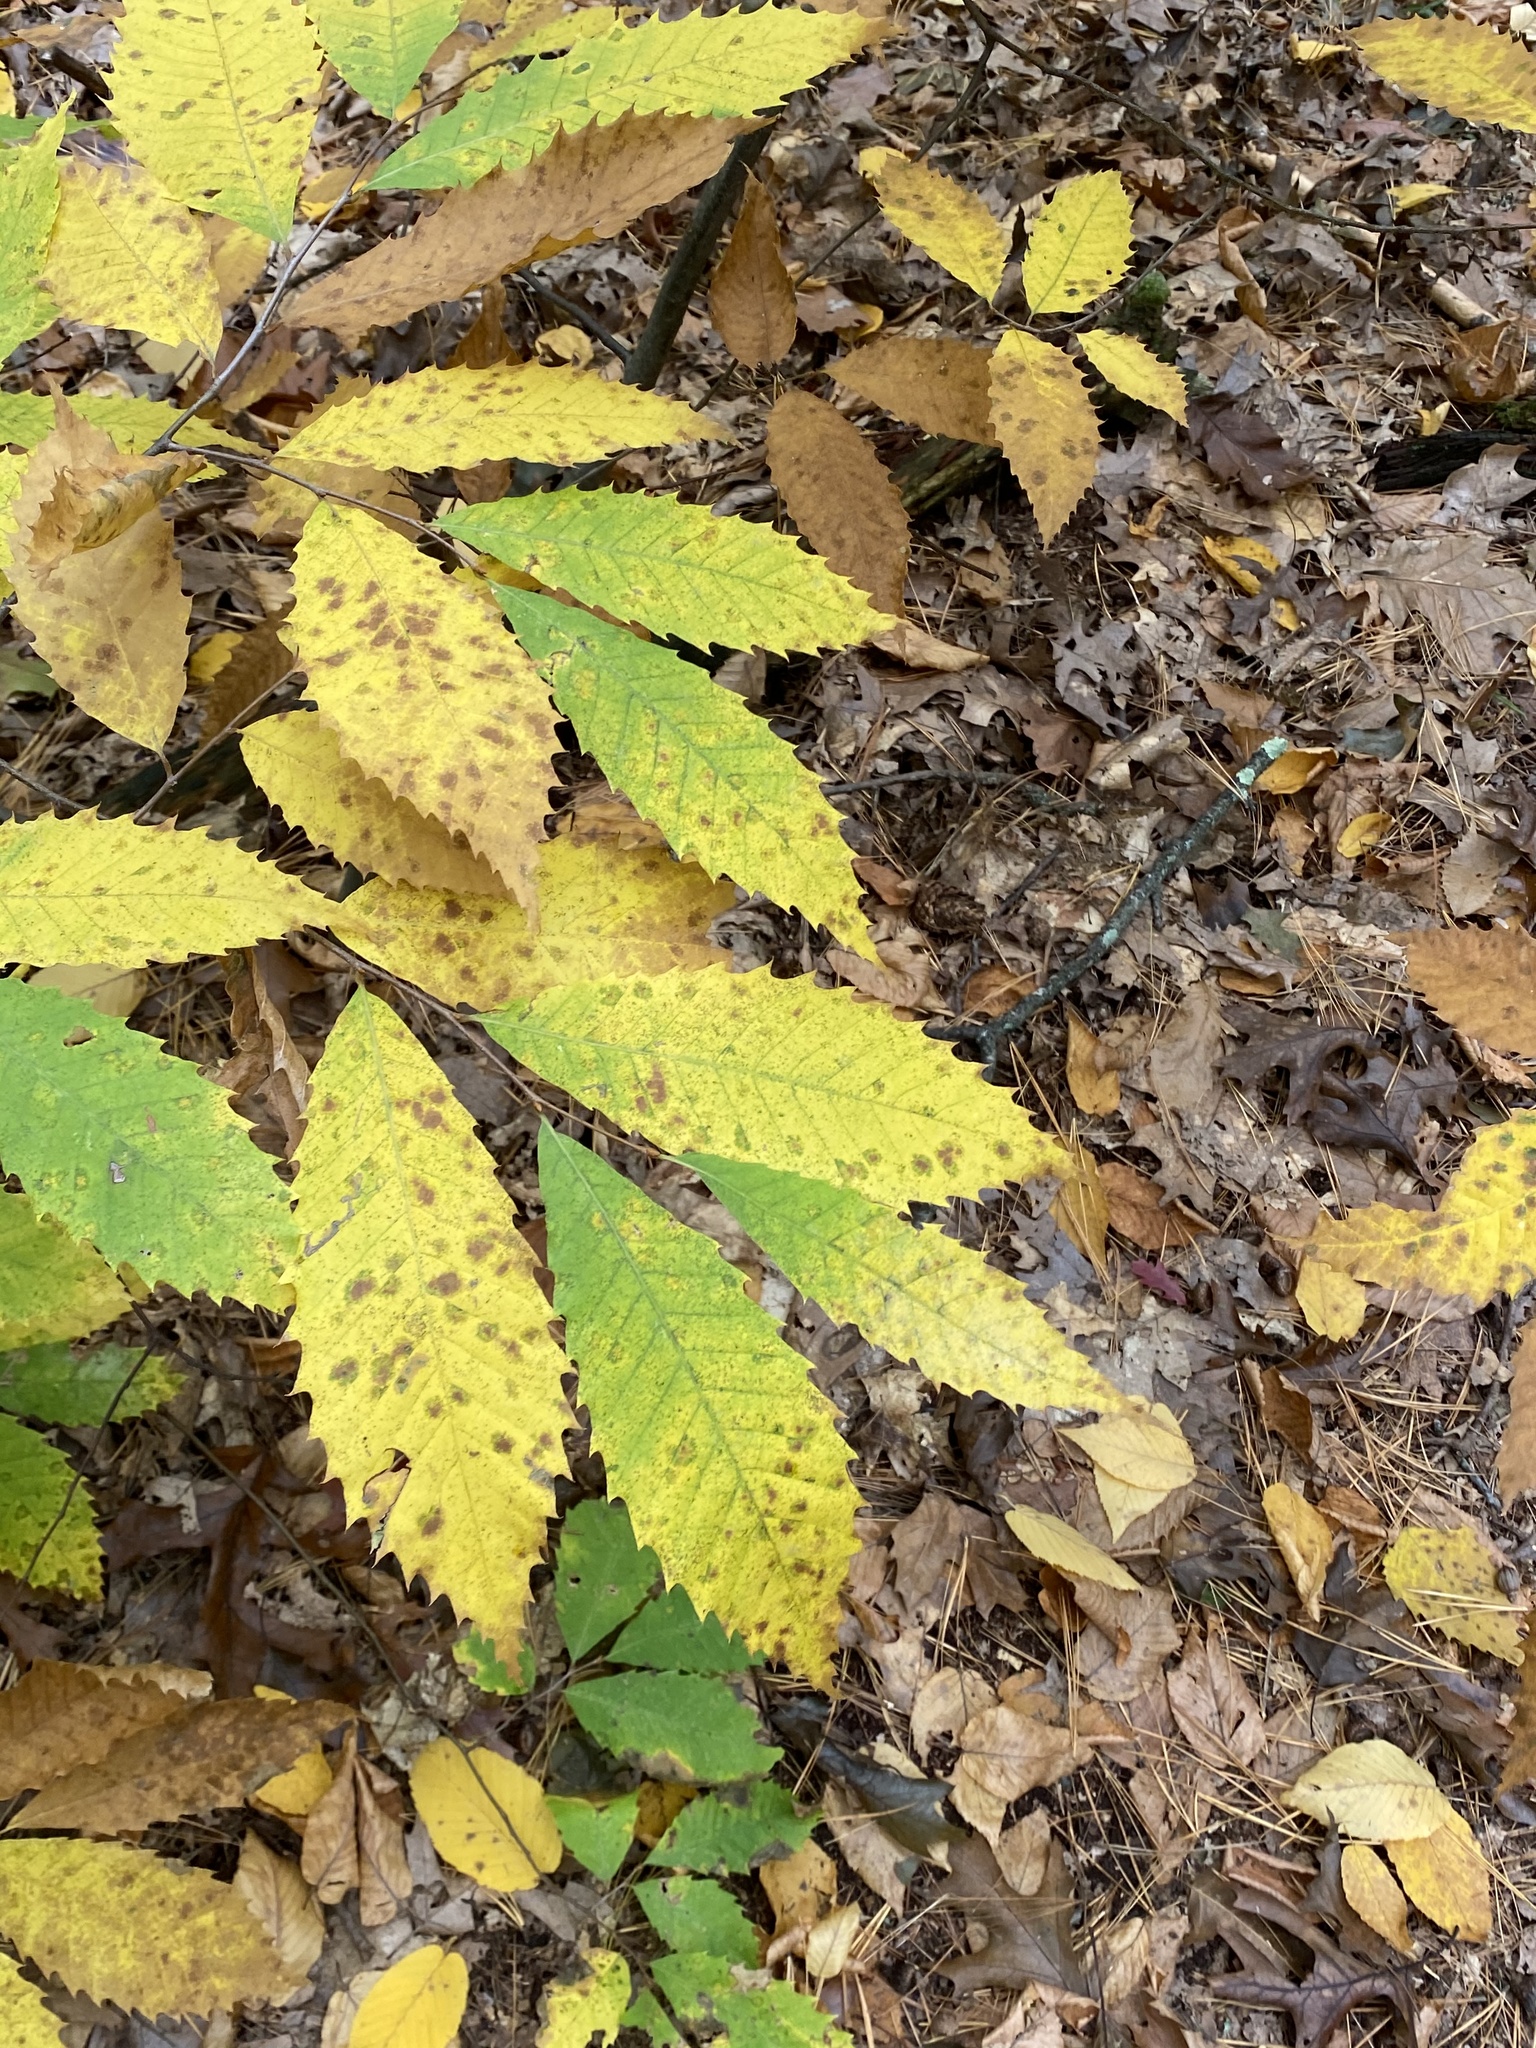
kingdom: Plantae
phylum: Tracheophyta
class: Magnoliopsida
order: Fagales
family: Fagaceae
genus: Castanea
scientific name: Castanea dentata
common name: American chestnut
